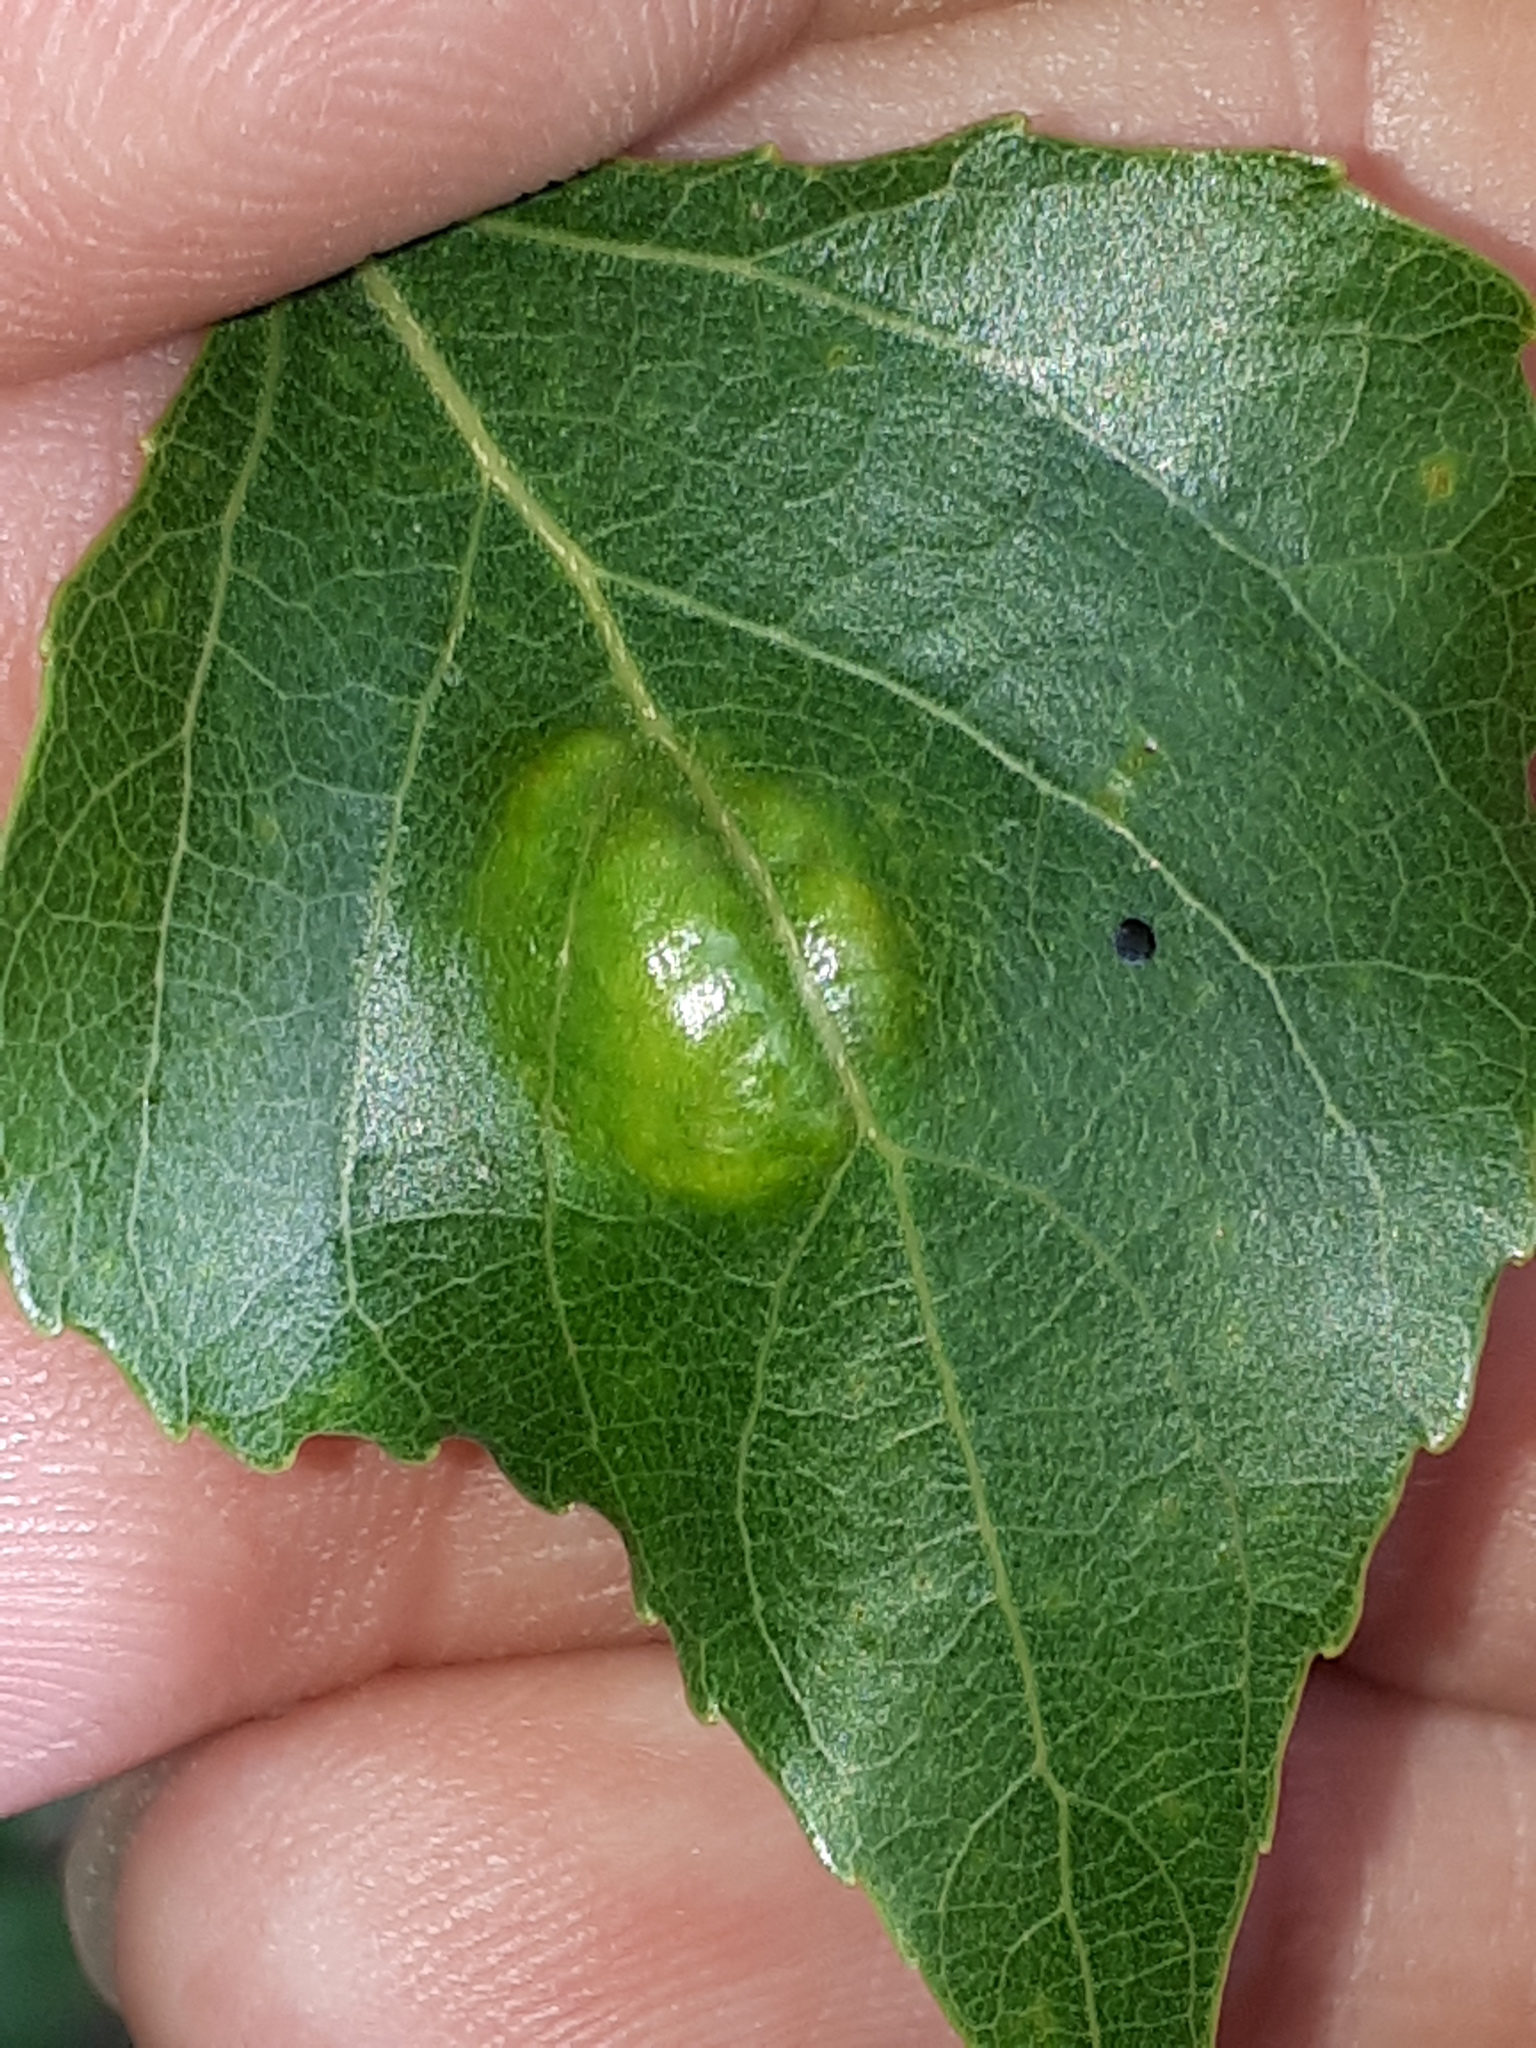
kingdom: Fungi
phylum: Ascomycota
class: Taphrinomycetes
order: Taphrinales
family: Taphrinaceae
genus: Taphrina
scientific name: Taphrina populina
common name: Poplar leaf curl
